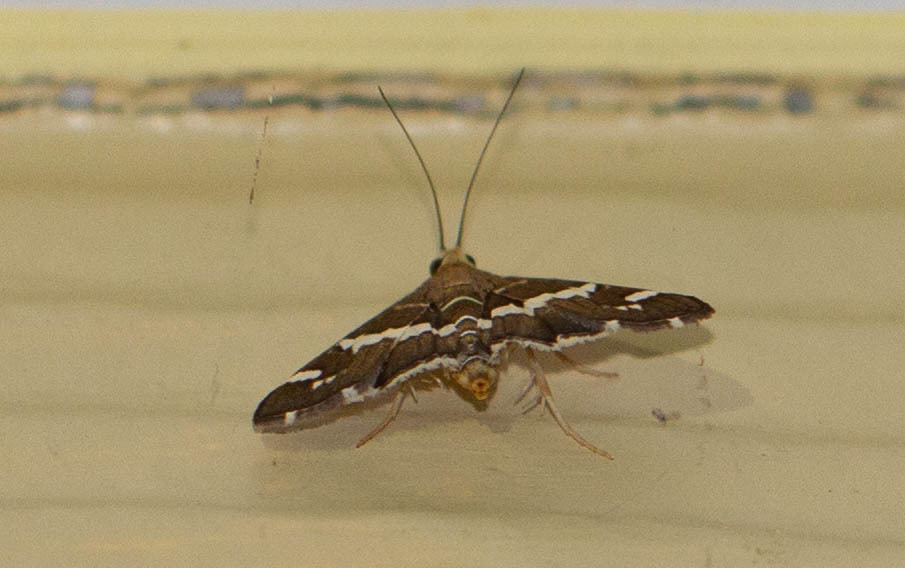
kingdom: Animalia
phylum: Arthropoda
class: Insecta
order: Lepidoptera
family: Crambidae
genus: Spoladea
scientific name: Spoladea recurvalis
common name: Beet webworm moth
